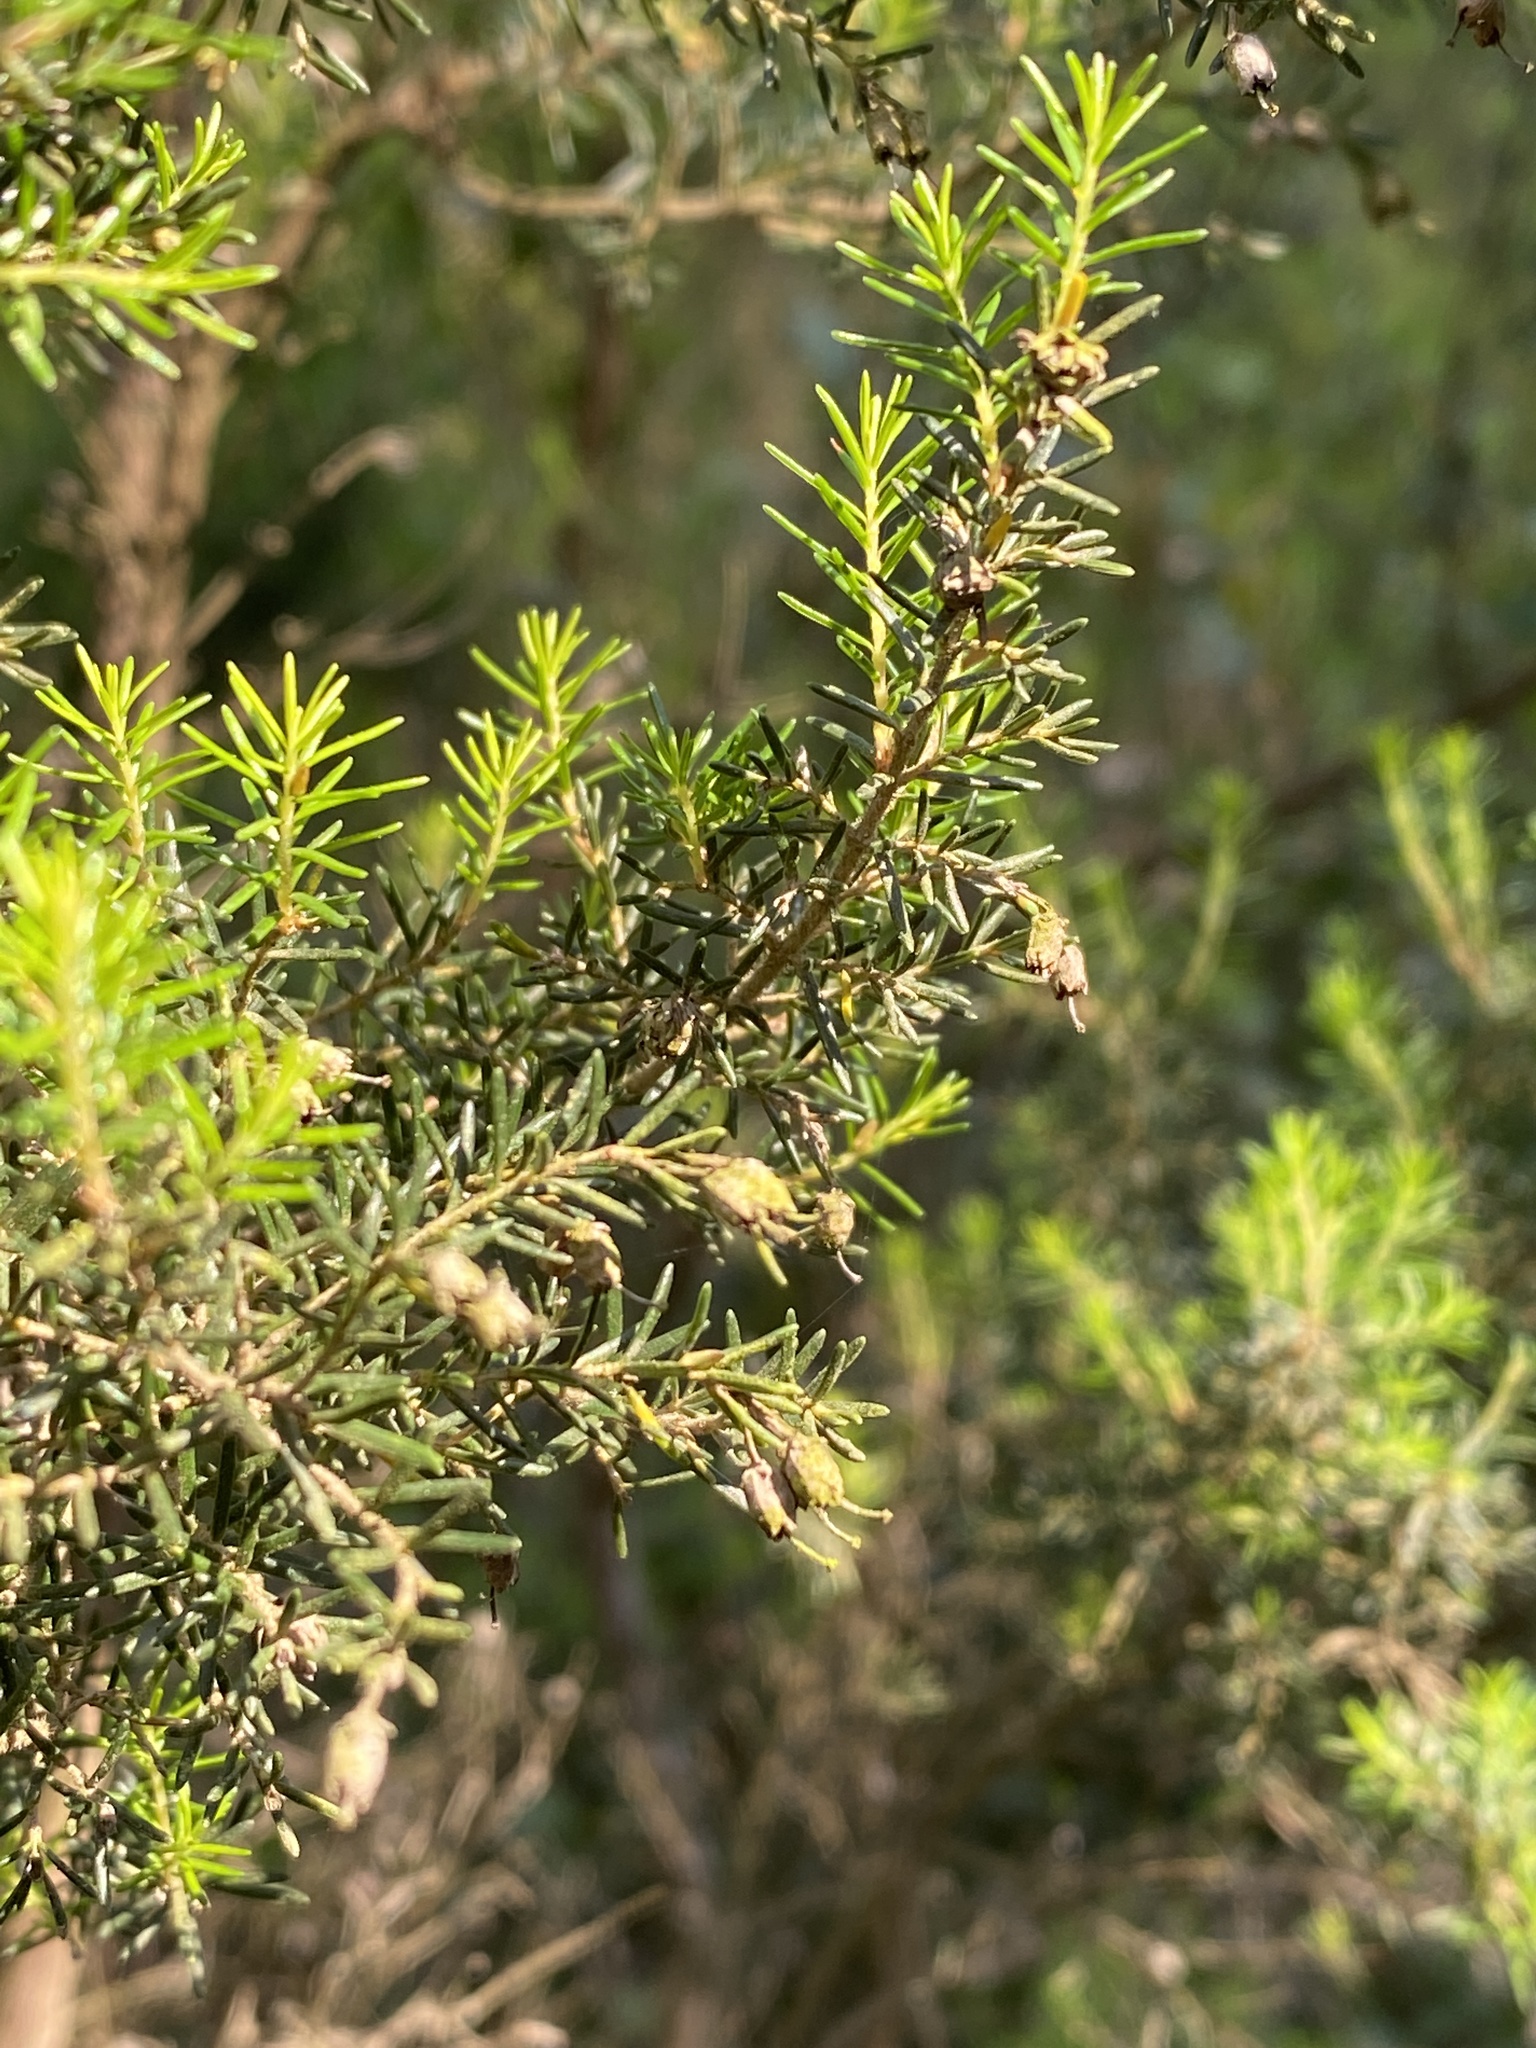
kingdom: Plantae
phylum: Tracheophyta
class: Magnoliopsida
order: Ericales
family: Ericaceae
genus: Erica
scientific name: Erica arborea
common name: Tree heath
